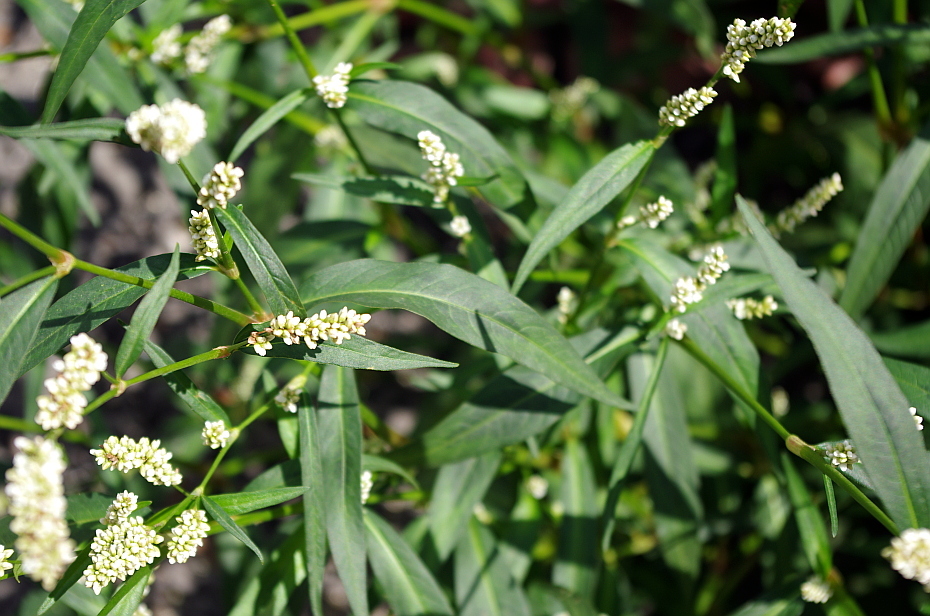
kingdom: Plantae
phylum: Tracheophyta
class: Magnoliopsida
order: Caryophyllales
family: Polygonaceae
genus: Persicaria
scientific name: Persicaria maculosa
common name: Redshank
